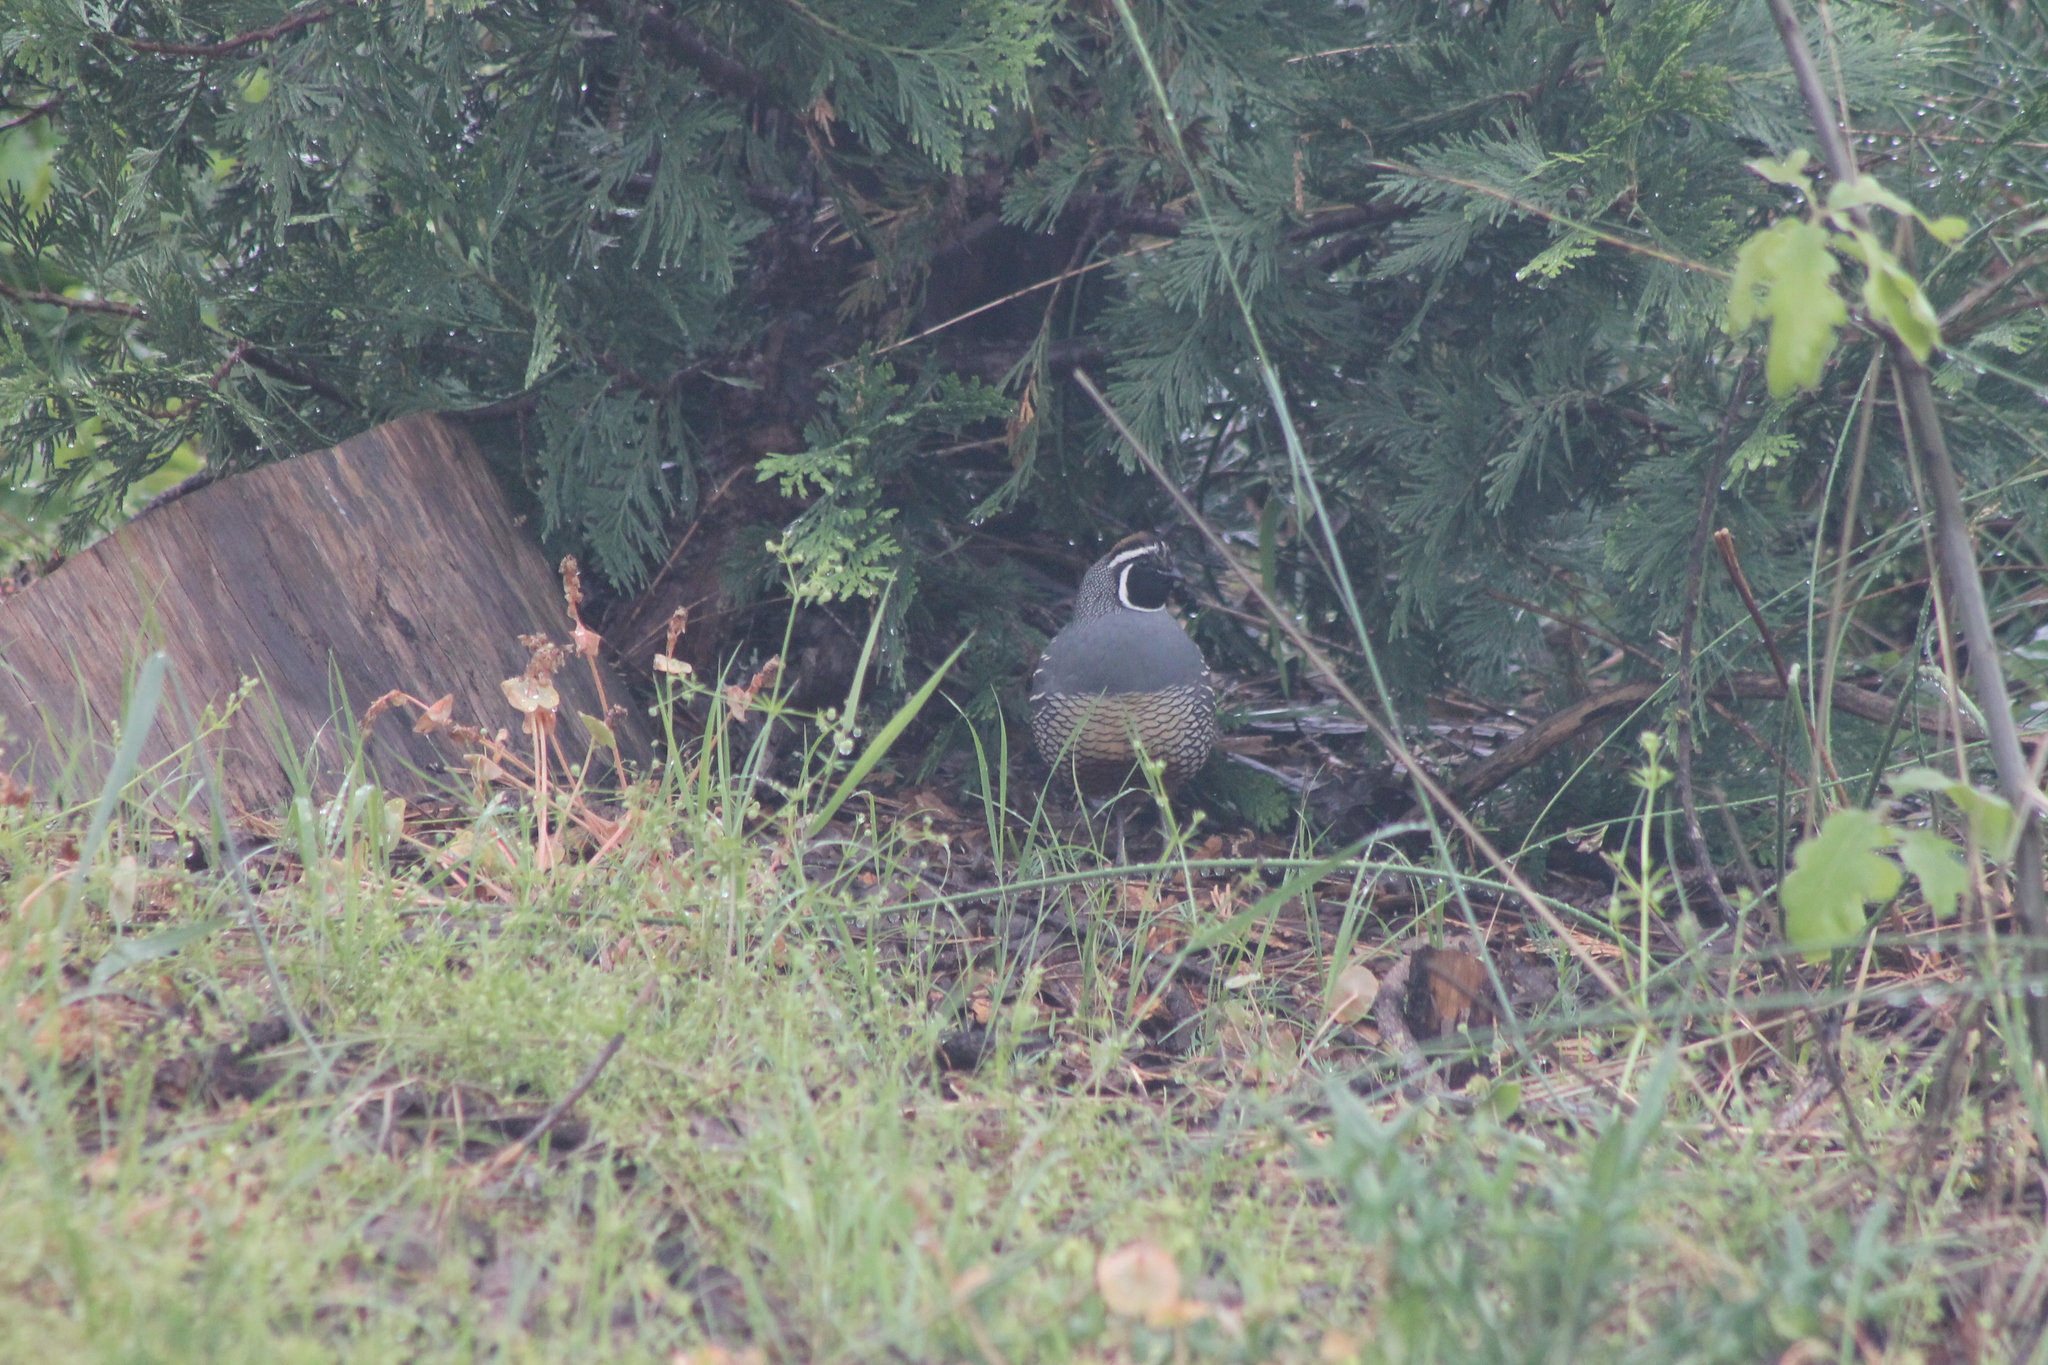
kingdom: Animalia
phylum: Chordata
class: Aves
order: Galliformes
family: Odontophoridae
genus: Callipepla
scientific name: Callipepla californica
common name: California quail
